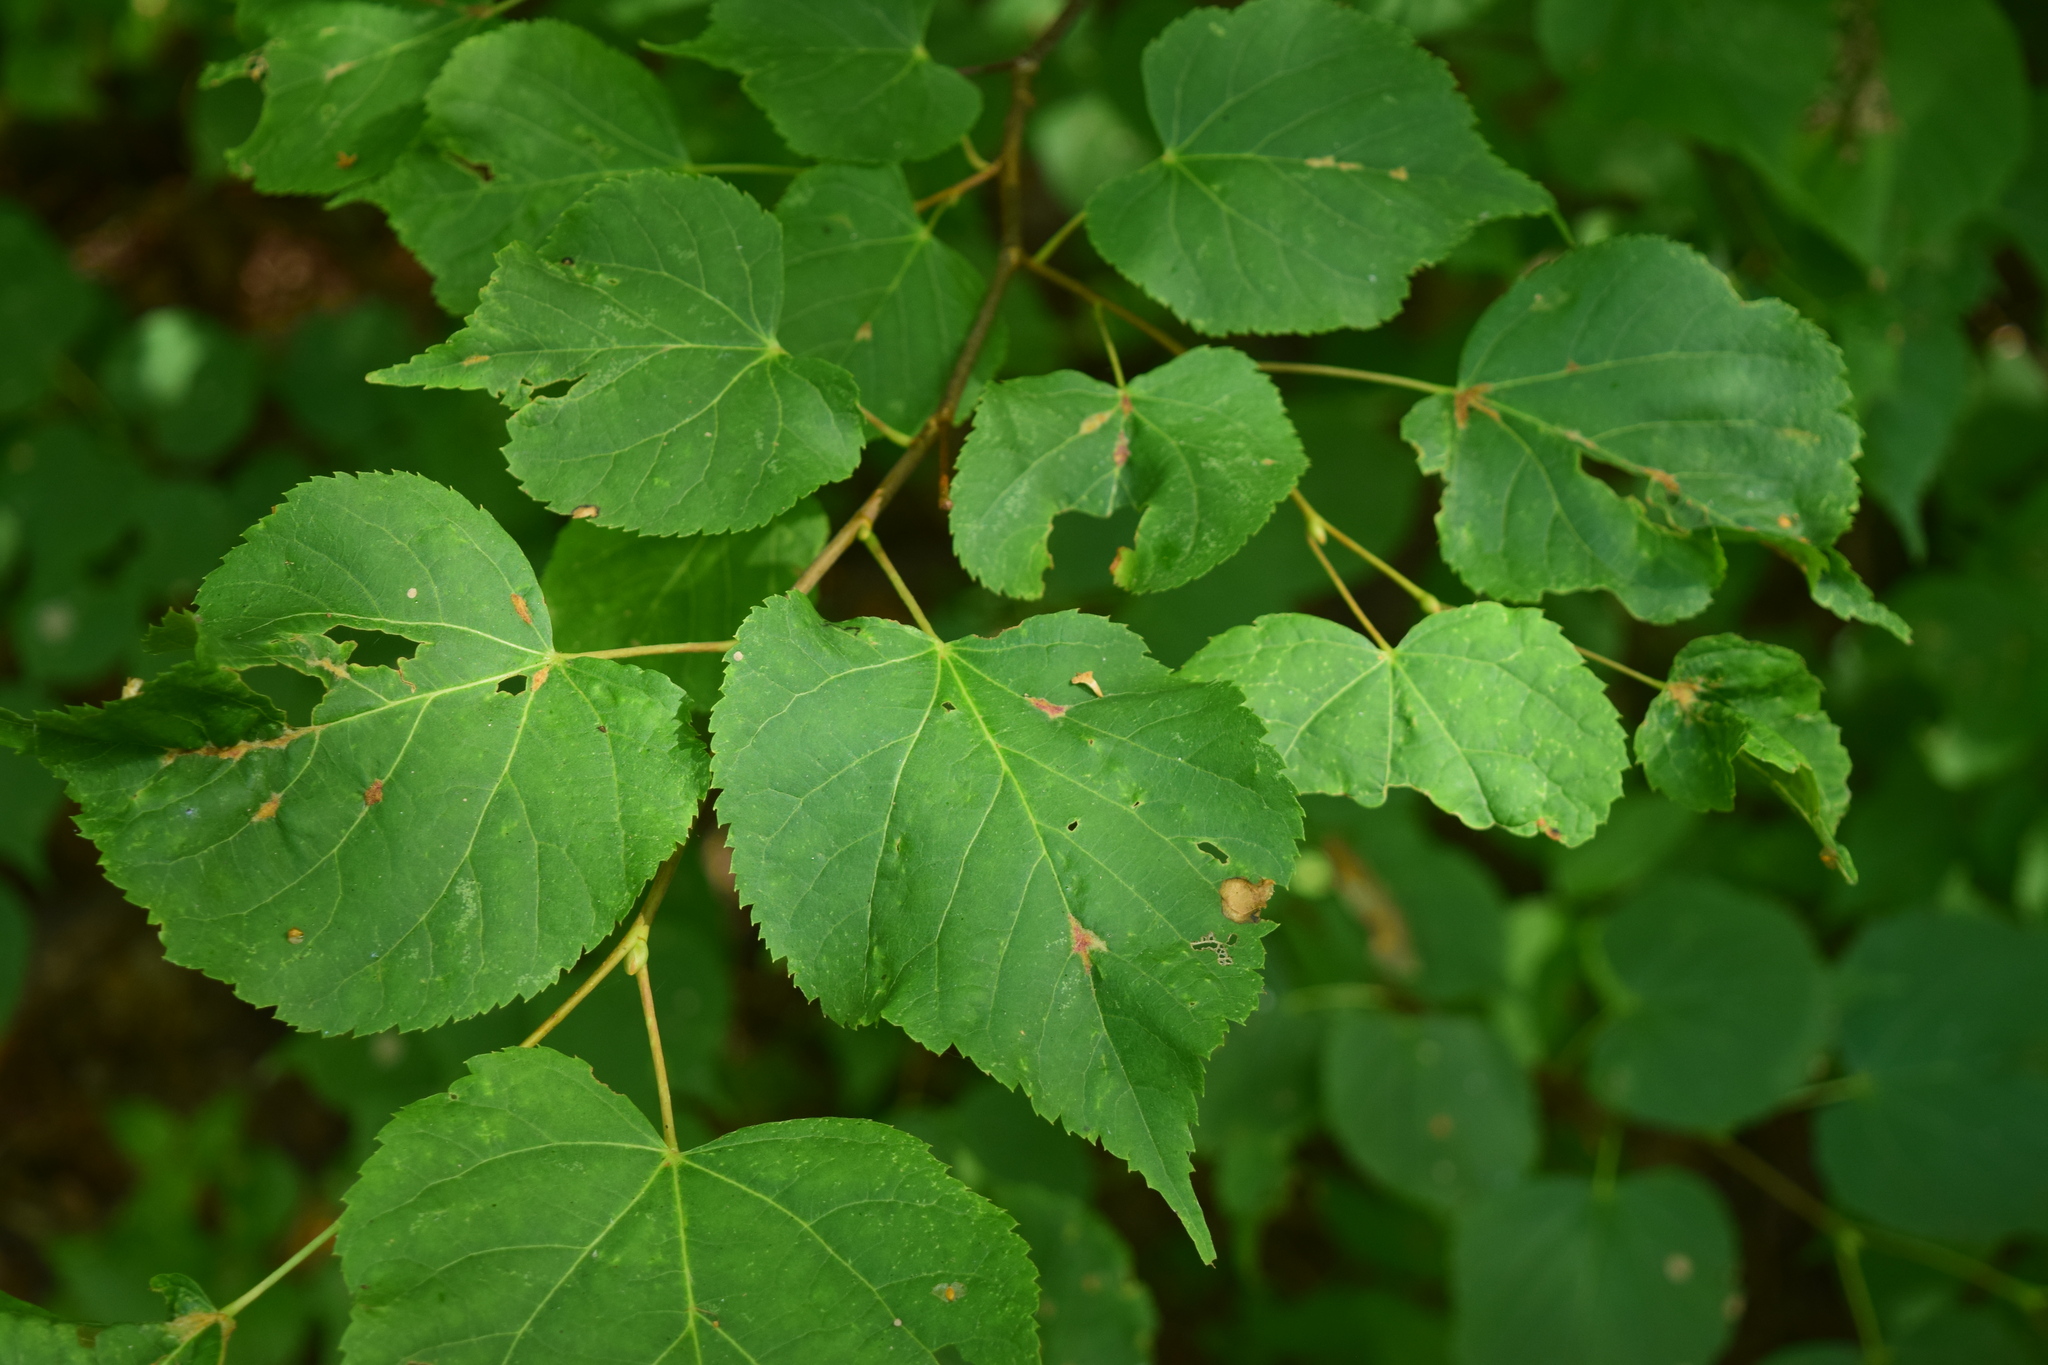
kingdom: Plantae
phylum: Tracheophyta
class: Magnoliopsida
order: Malvales
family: Malvaceae
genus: Tilia
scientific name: Tilia cordata
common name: Small-leaved lime
